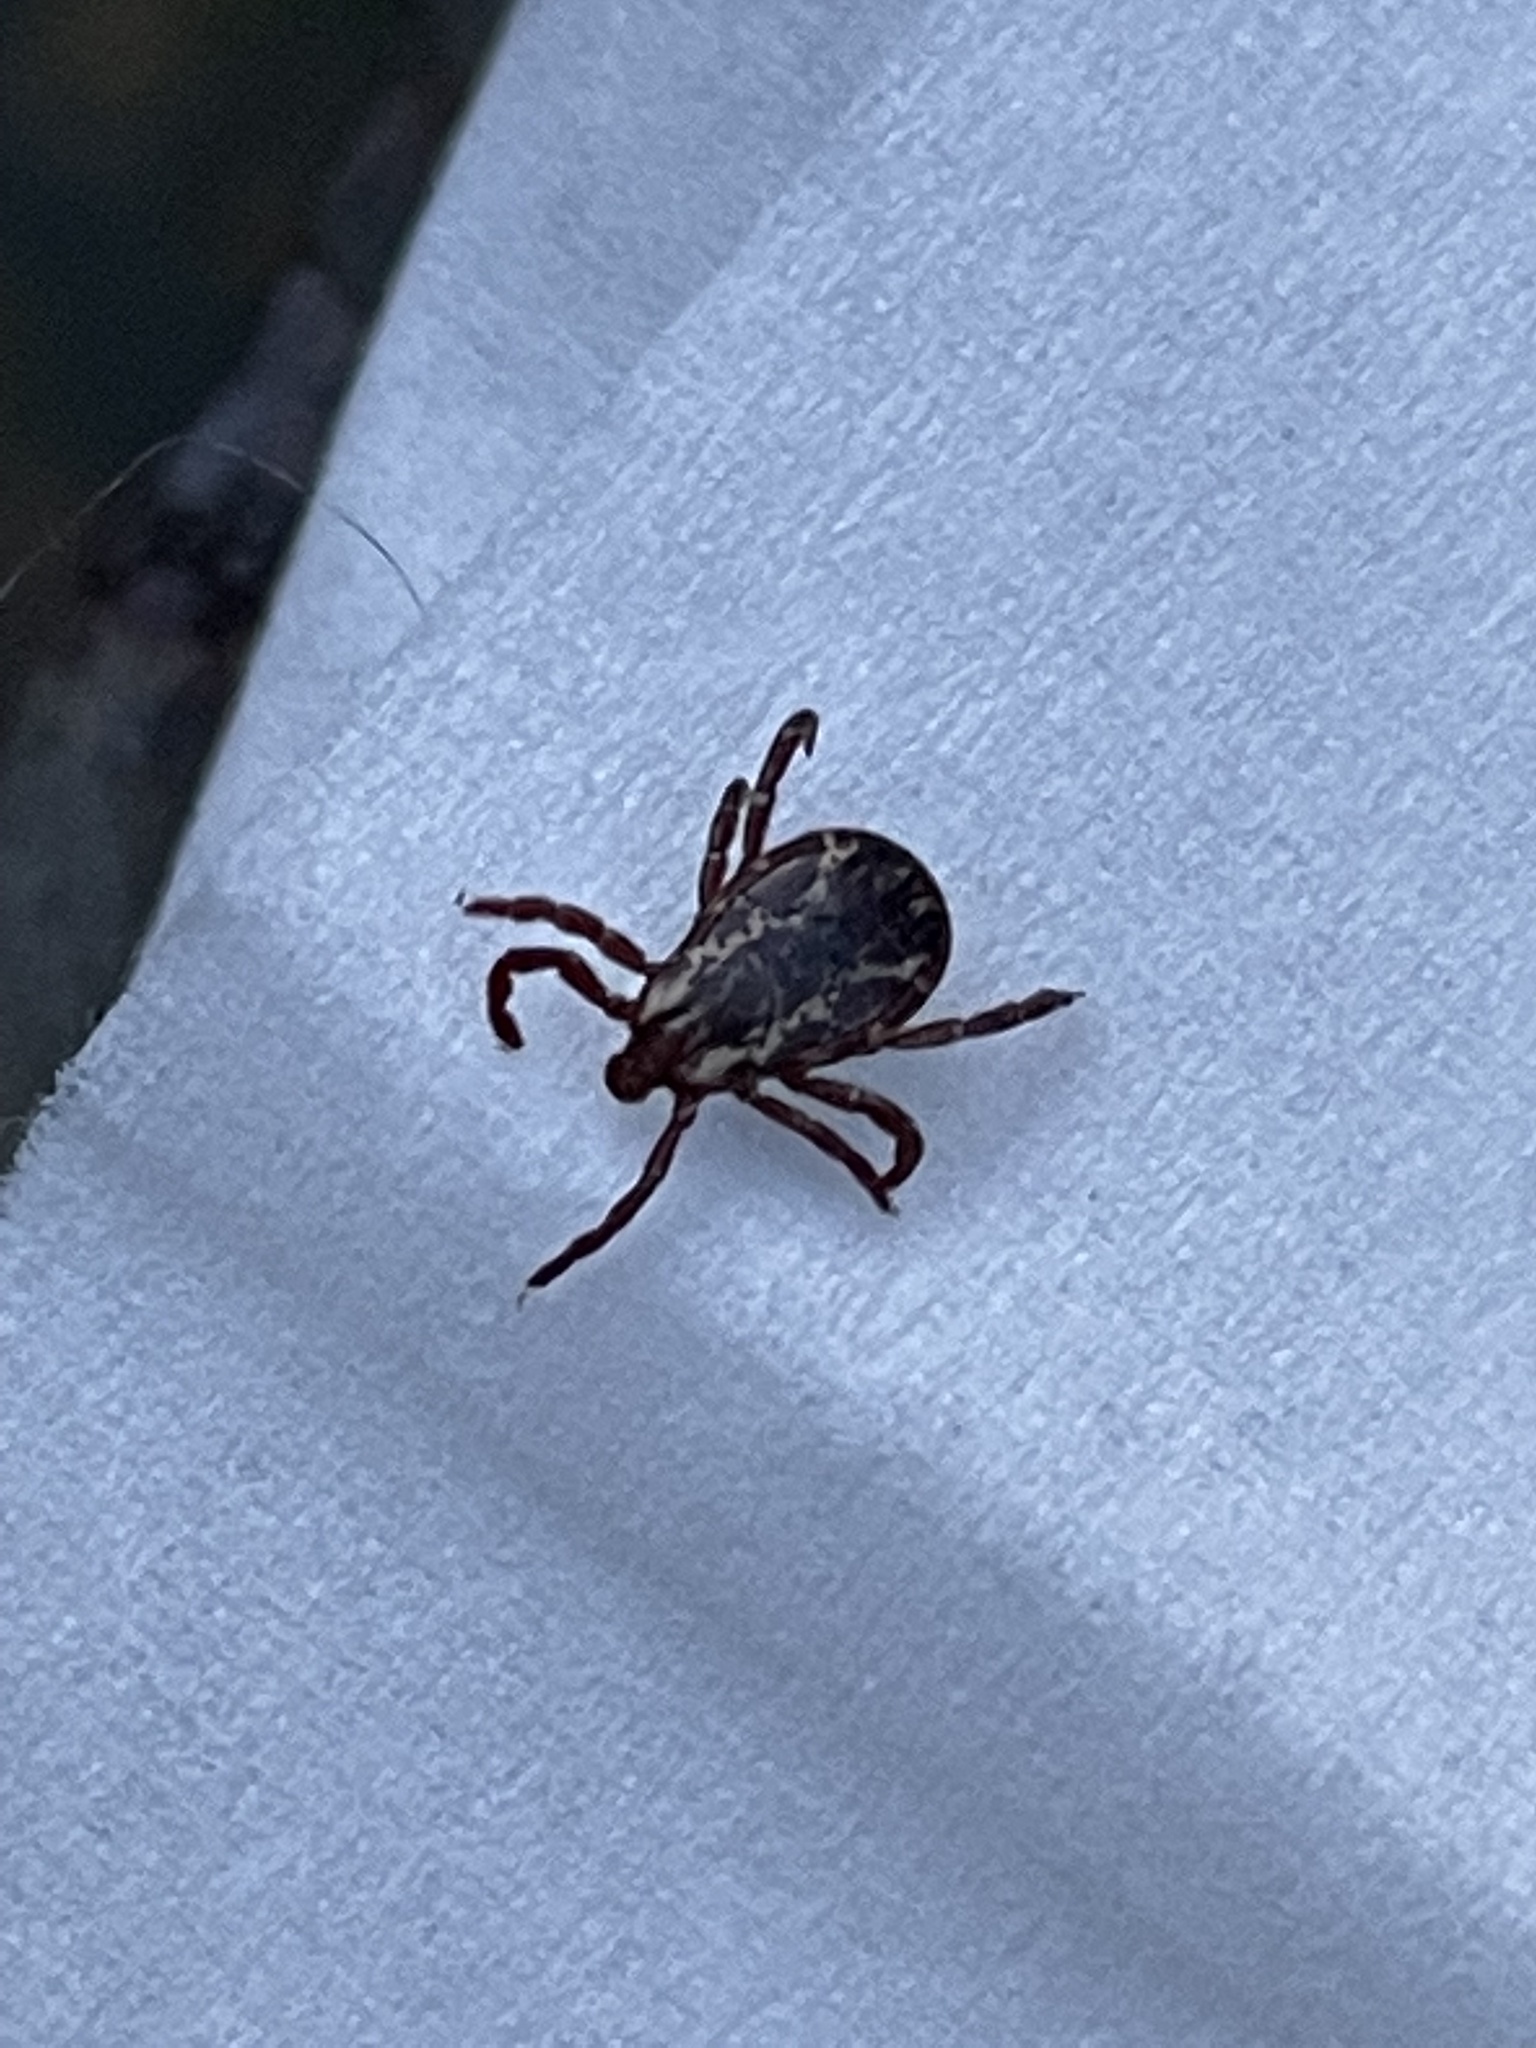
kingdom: Animalia
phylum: Arthropoda
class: Arachnida
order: Ixodida
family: Ixodidae
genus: Dermacentor
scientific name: Dermacentor variabilis
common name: American dog tick
